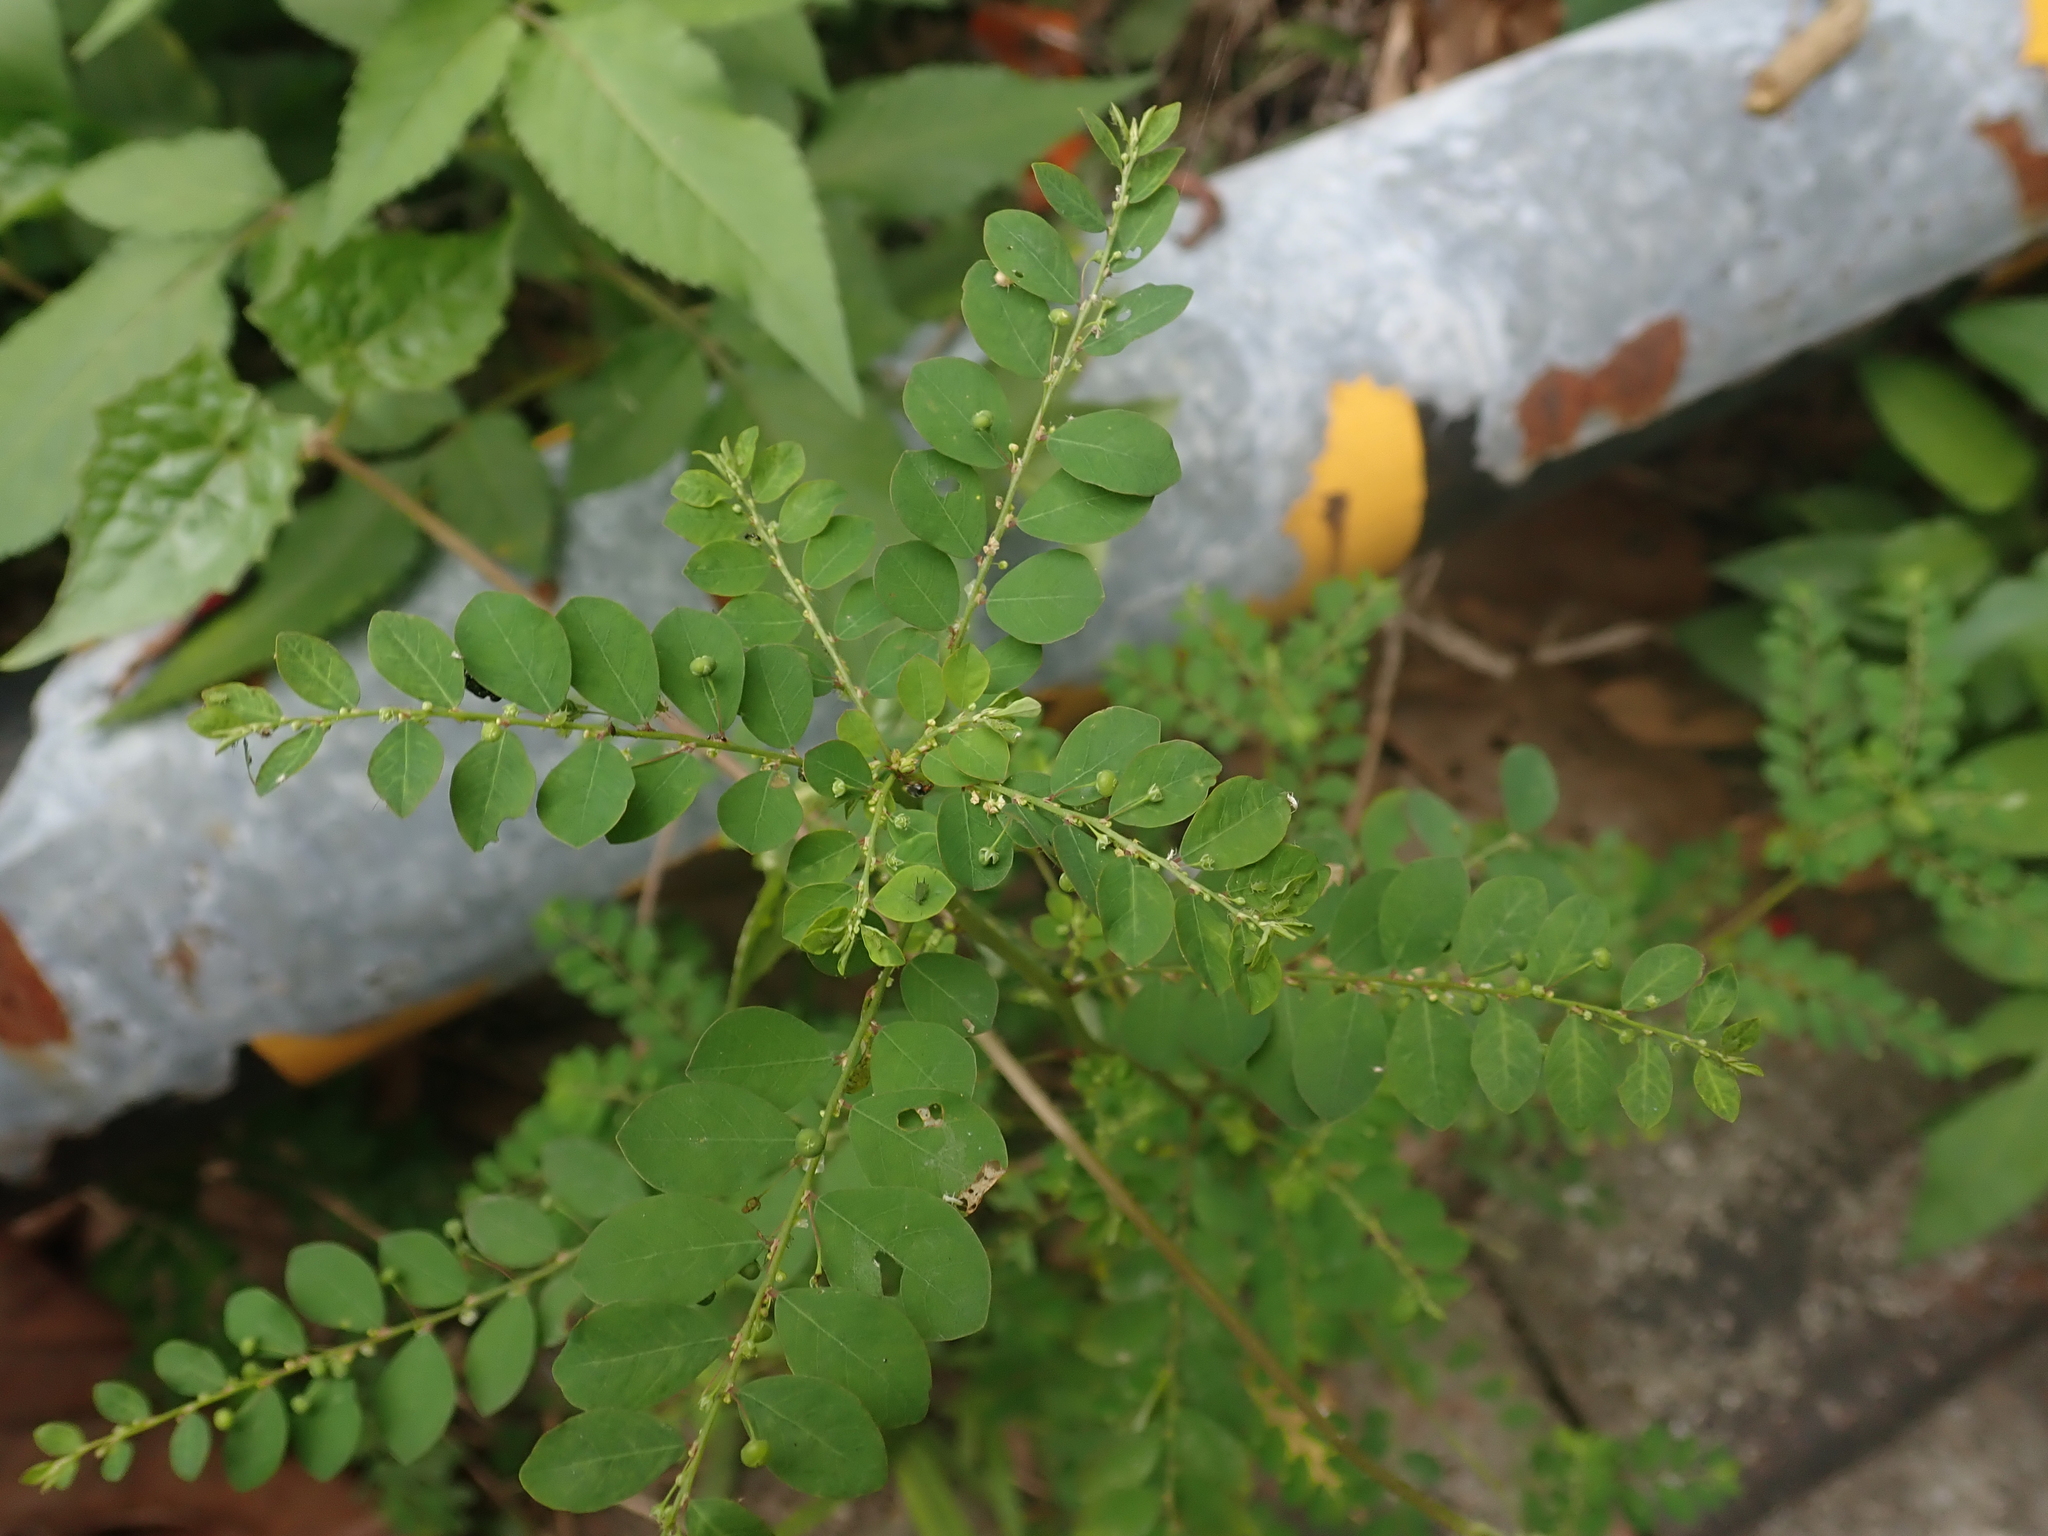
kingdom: Plantae
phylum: Tracheophyta
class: Magnoliopsida
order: Malpighiales
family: Phyllanthaceae
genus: Phyllanthus
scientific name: Phyllanthus tenellus
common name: Mascarene island leaf-flower
